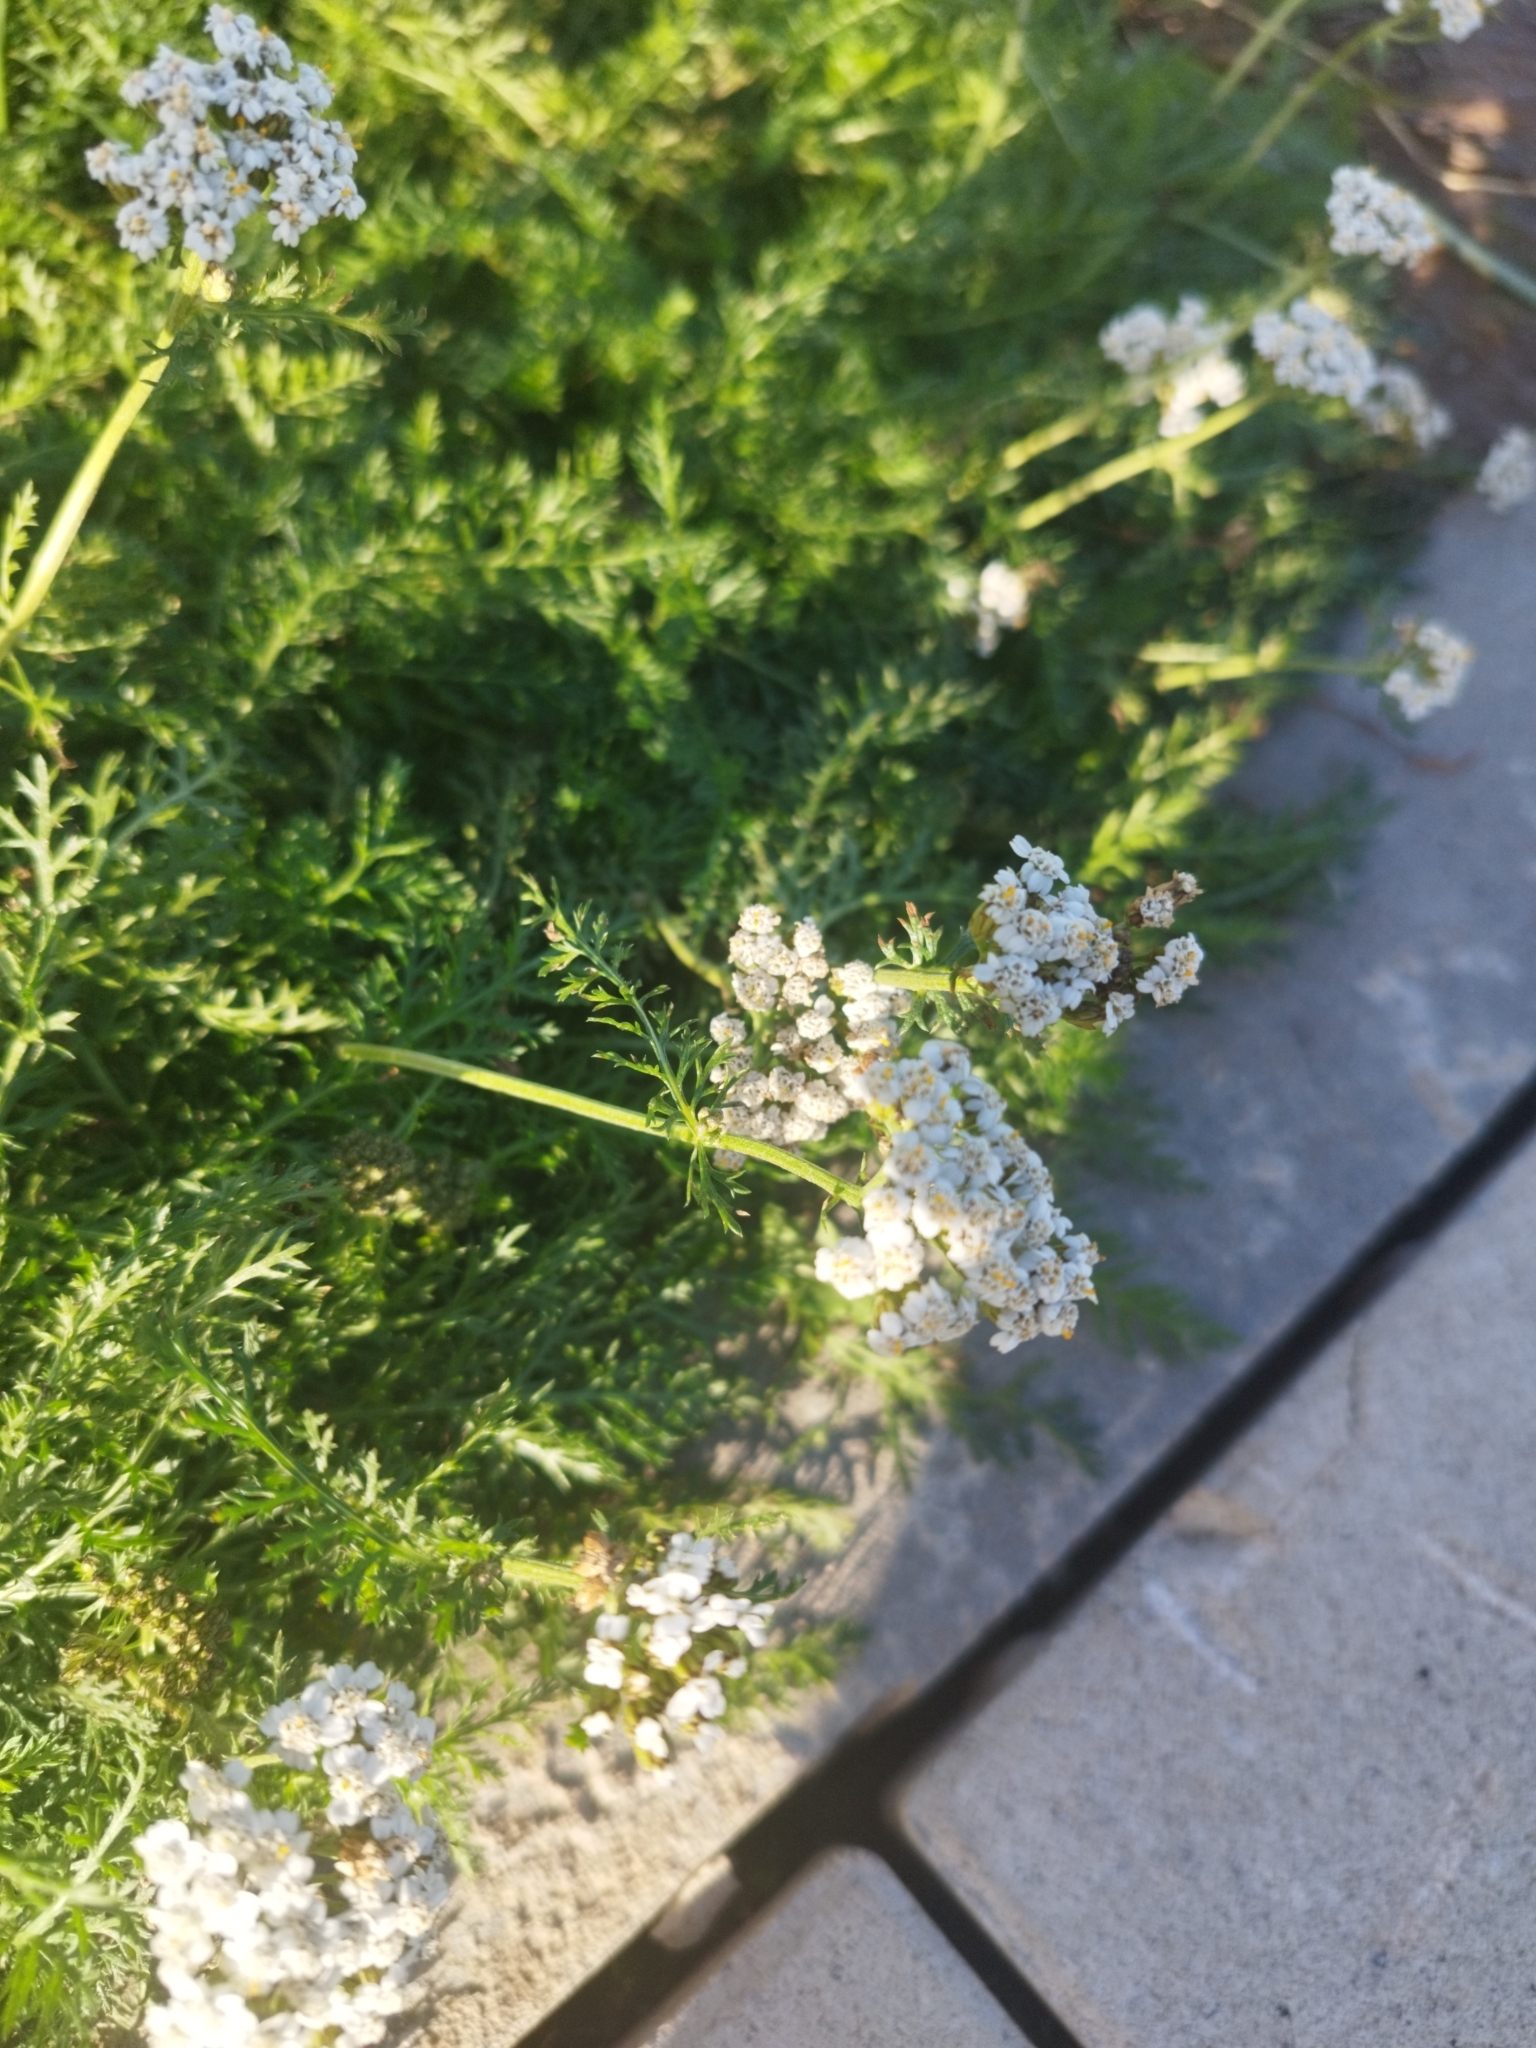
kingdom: Plantae
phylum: Tracheophyta
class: Magnoliopsida
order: Asterales
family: Asteraceae
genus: Achillea
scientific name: Achillea millefolium
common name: Yarrow
